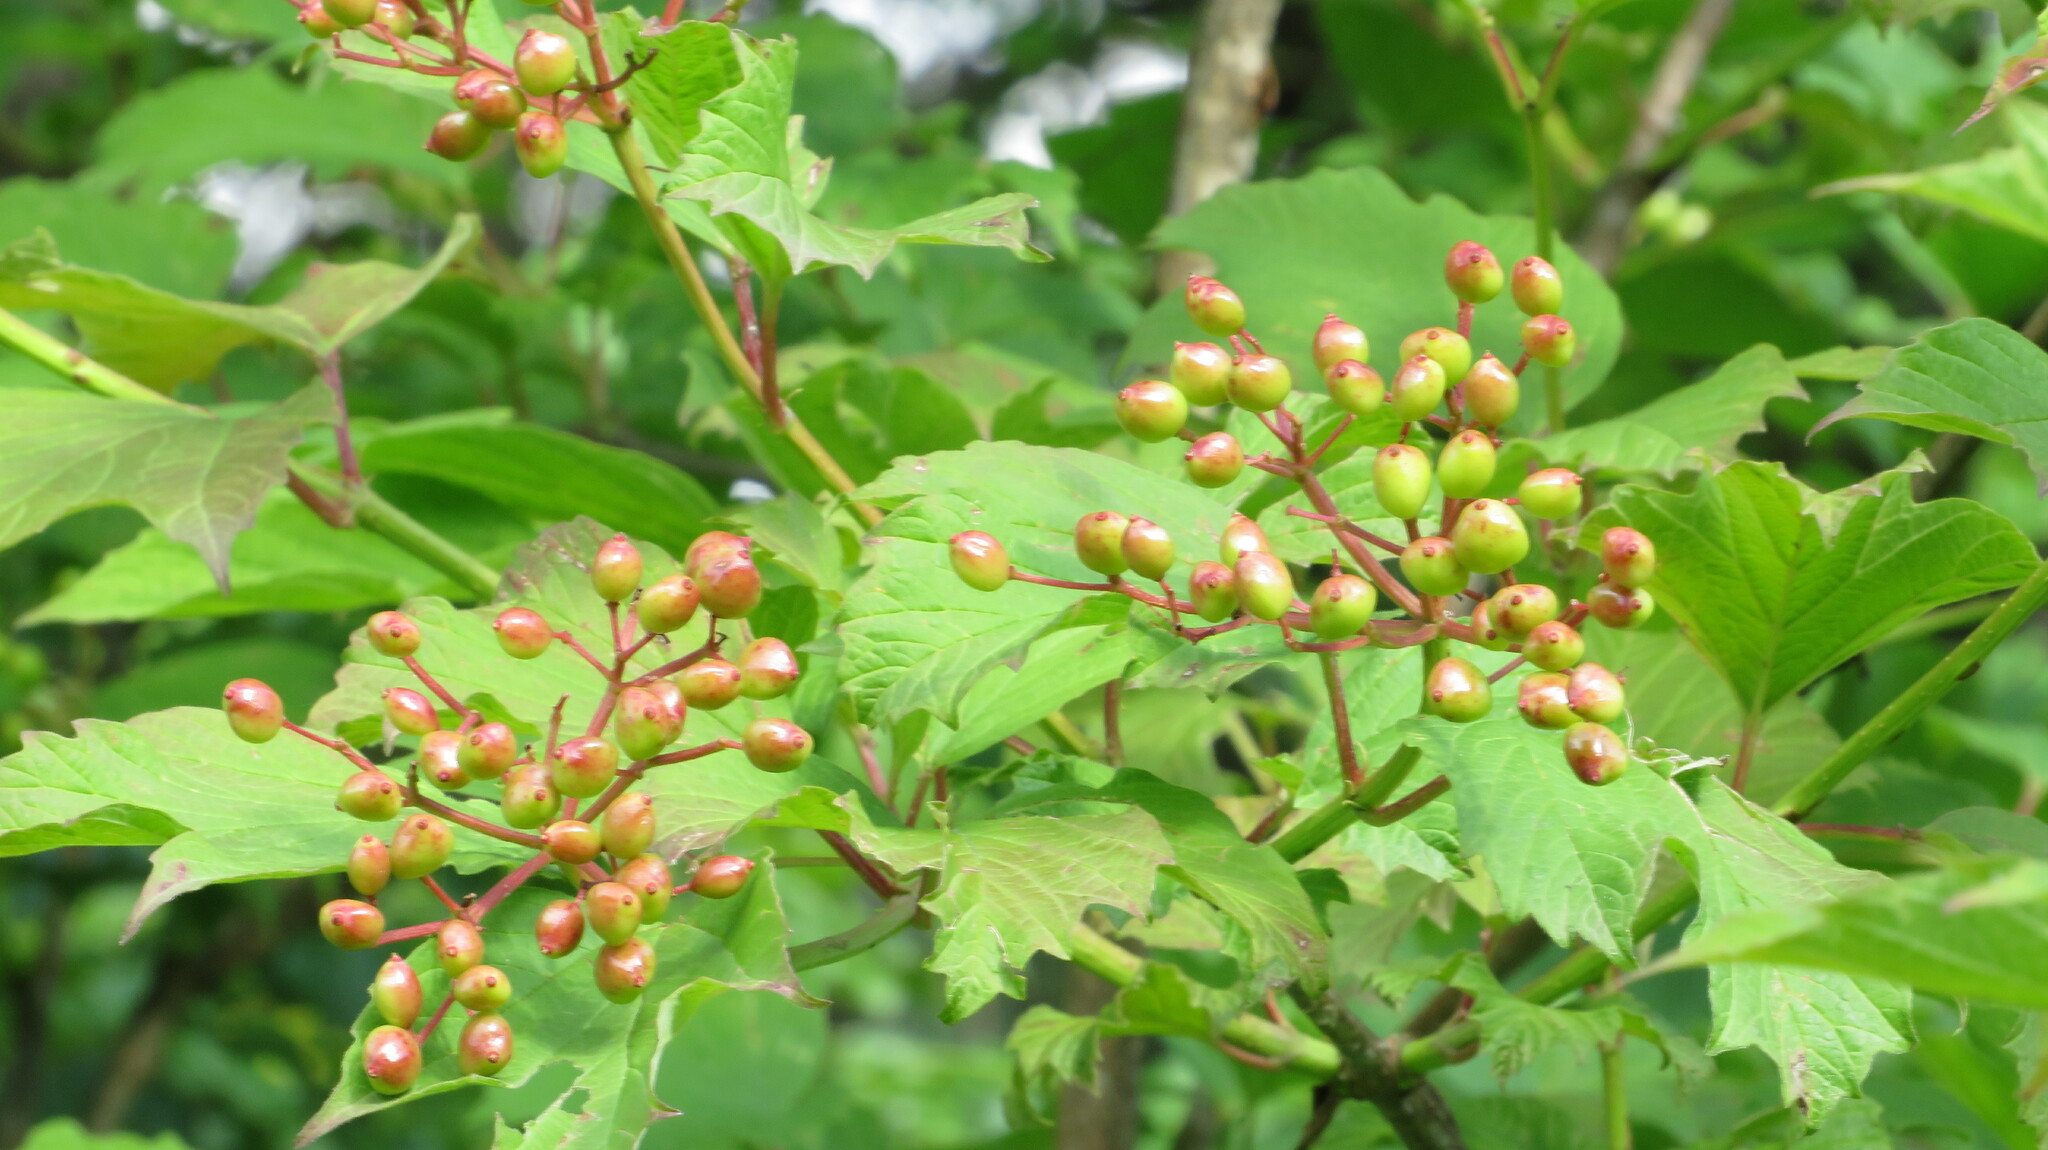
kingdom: Plantae
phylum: Tracheophyta
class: Magnoliopsida
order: Dipsacales
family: Viburnaceae
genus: Viburnum
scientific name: Viburnum opulus
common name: Guelder-rose
